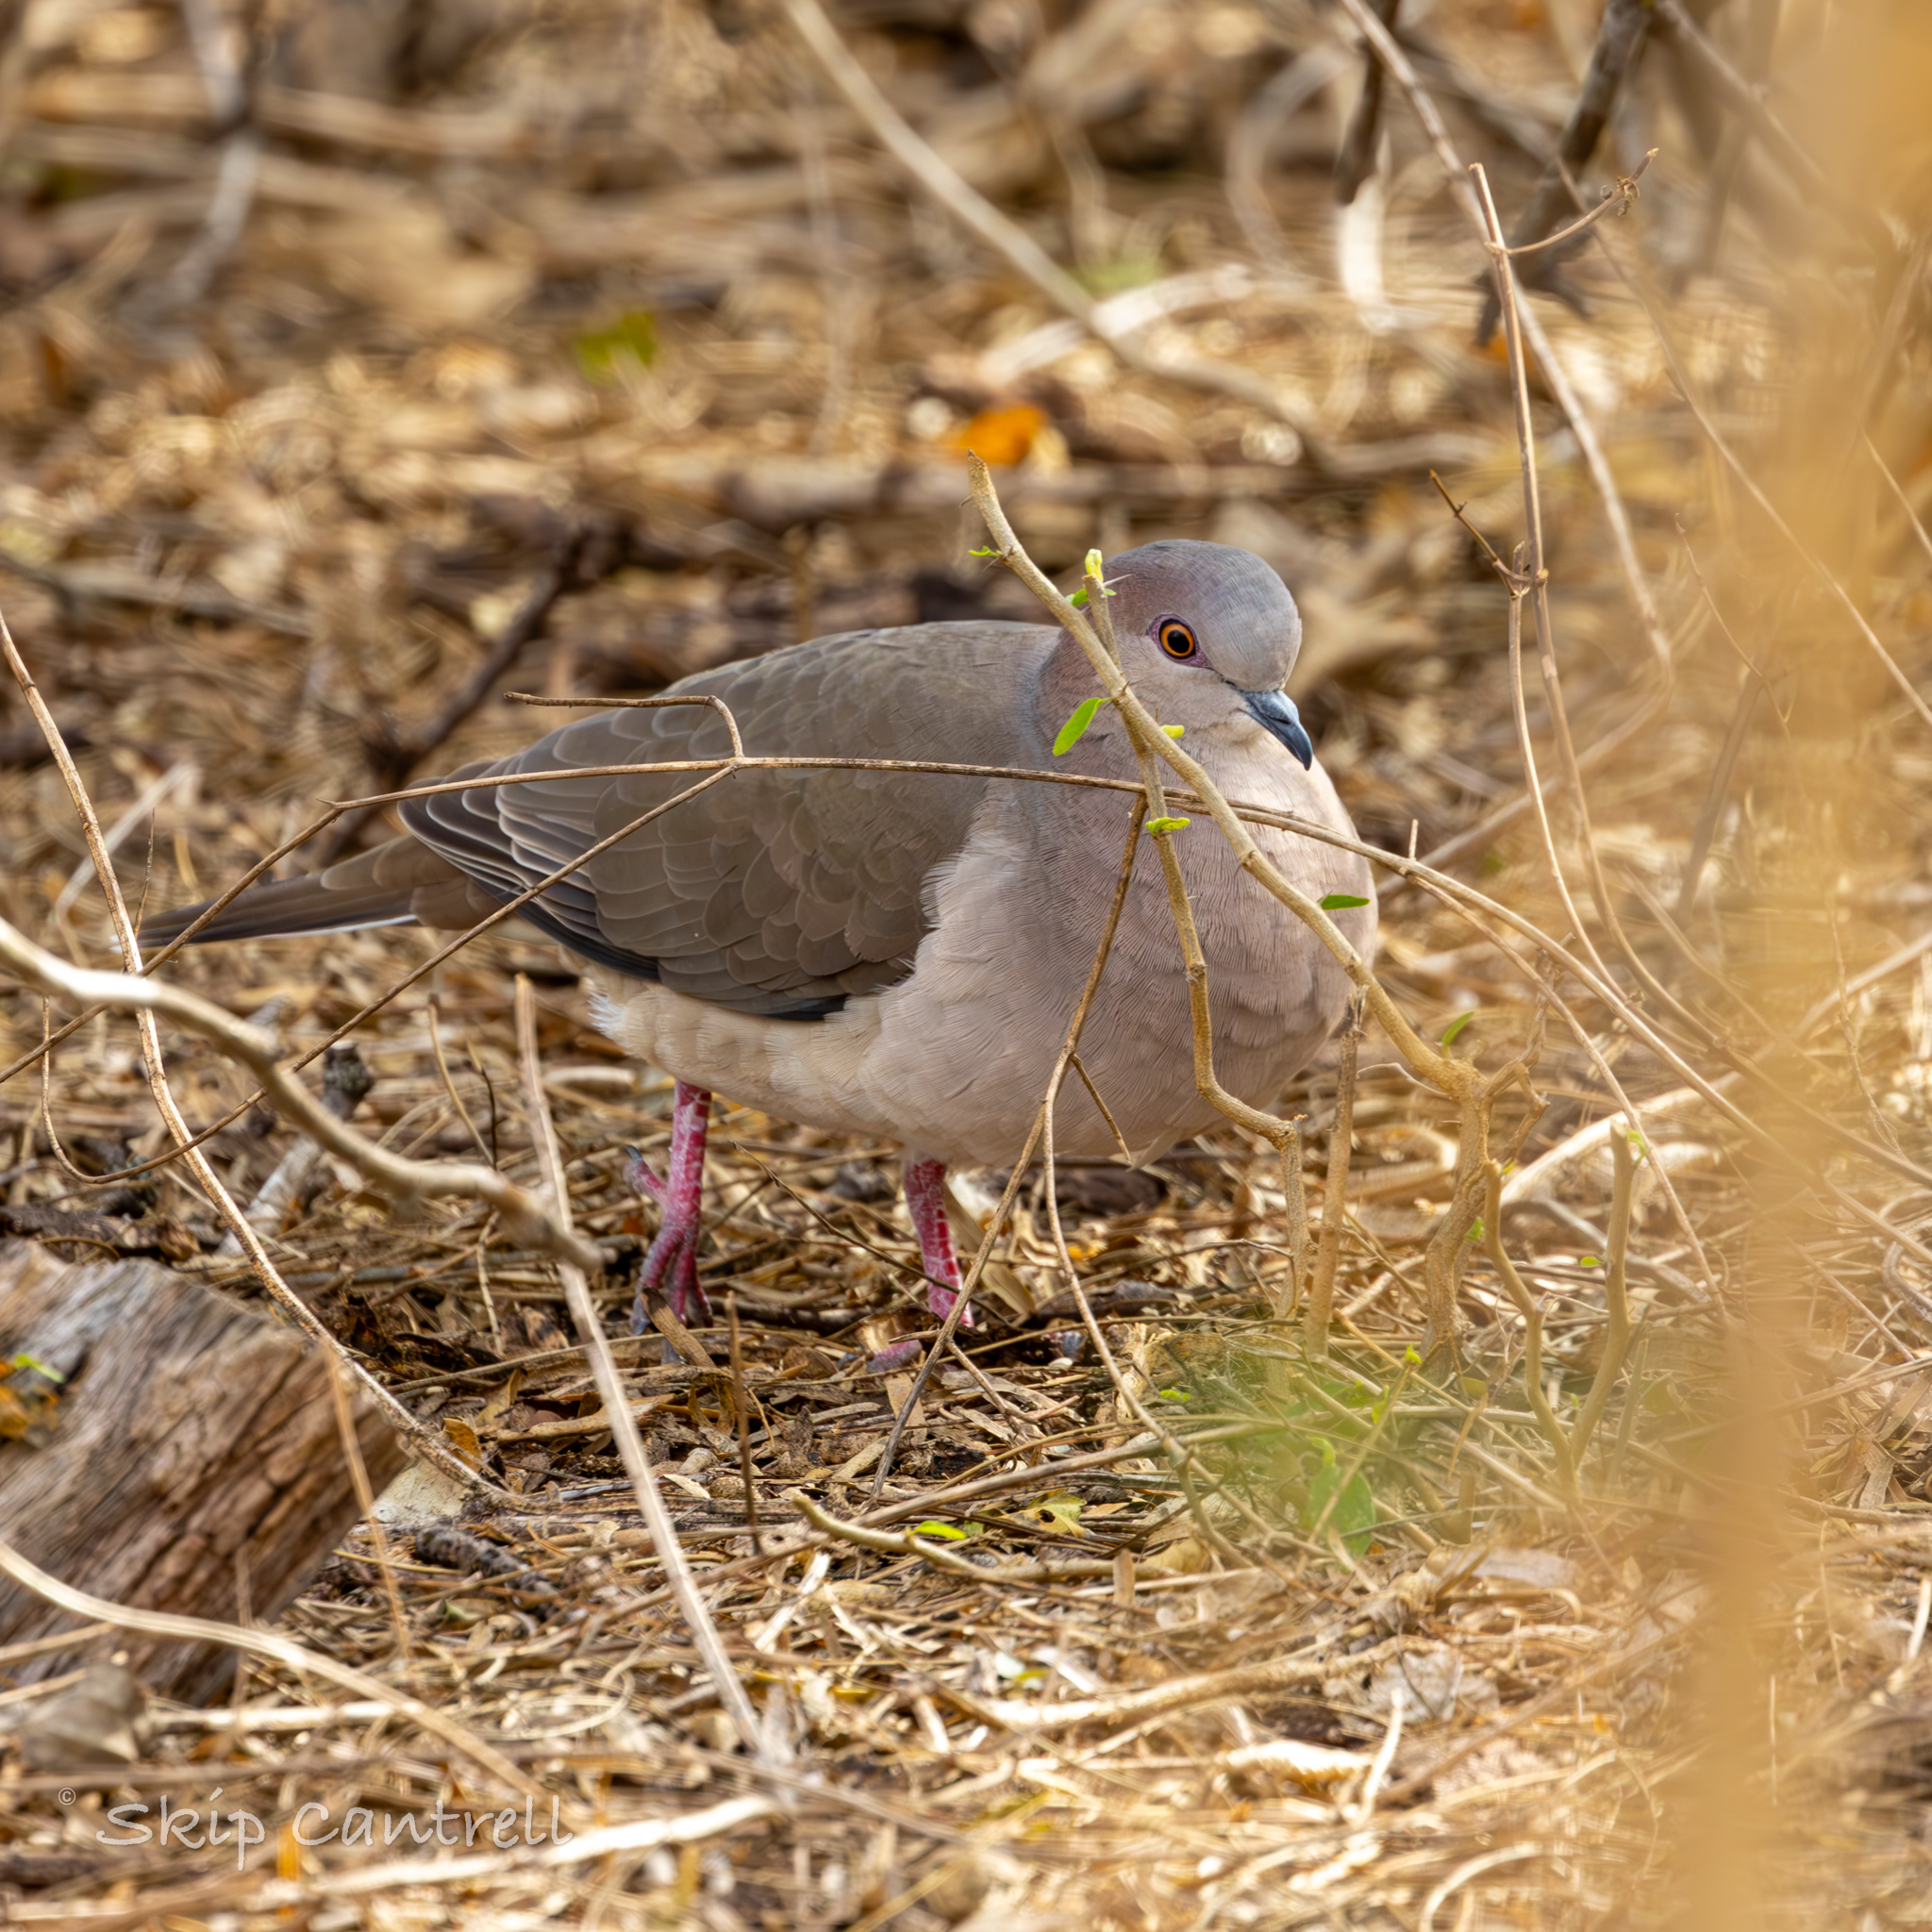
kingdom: Animalia
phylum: Chordata
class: Aves
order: Columbiformes
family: Columbidae
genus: Leptotila
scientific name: Leptotila verreauxi
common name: White-tipped dove
